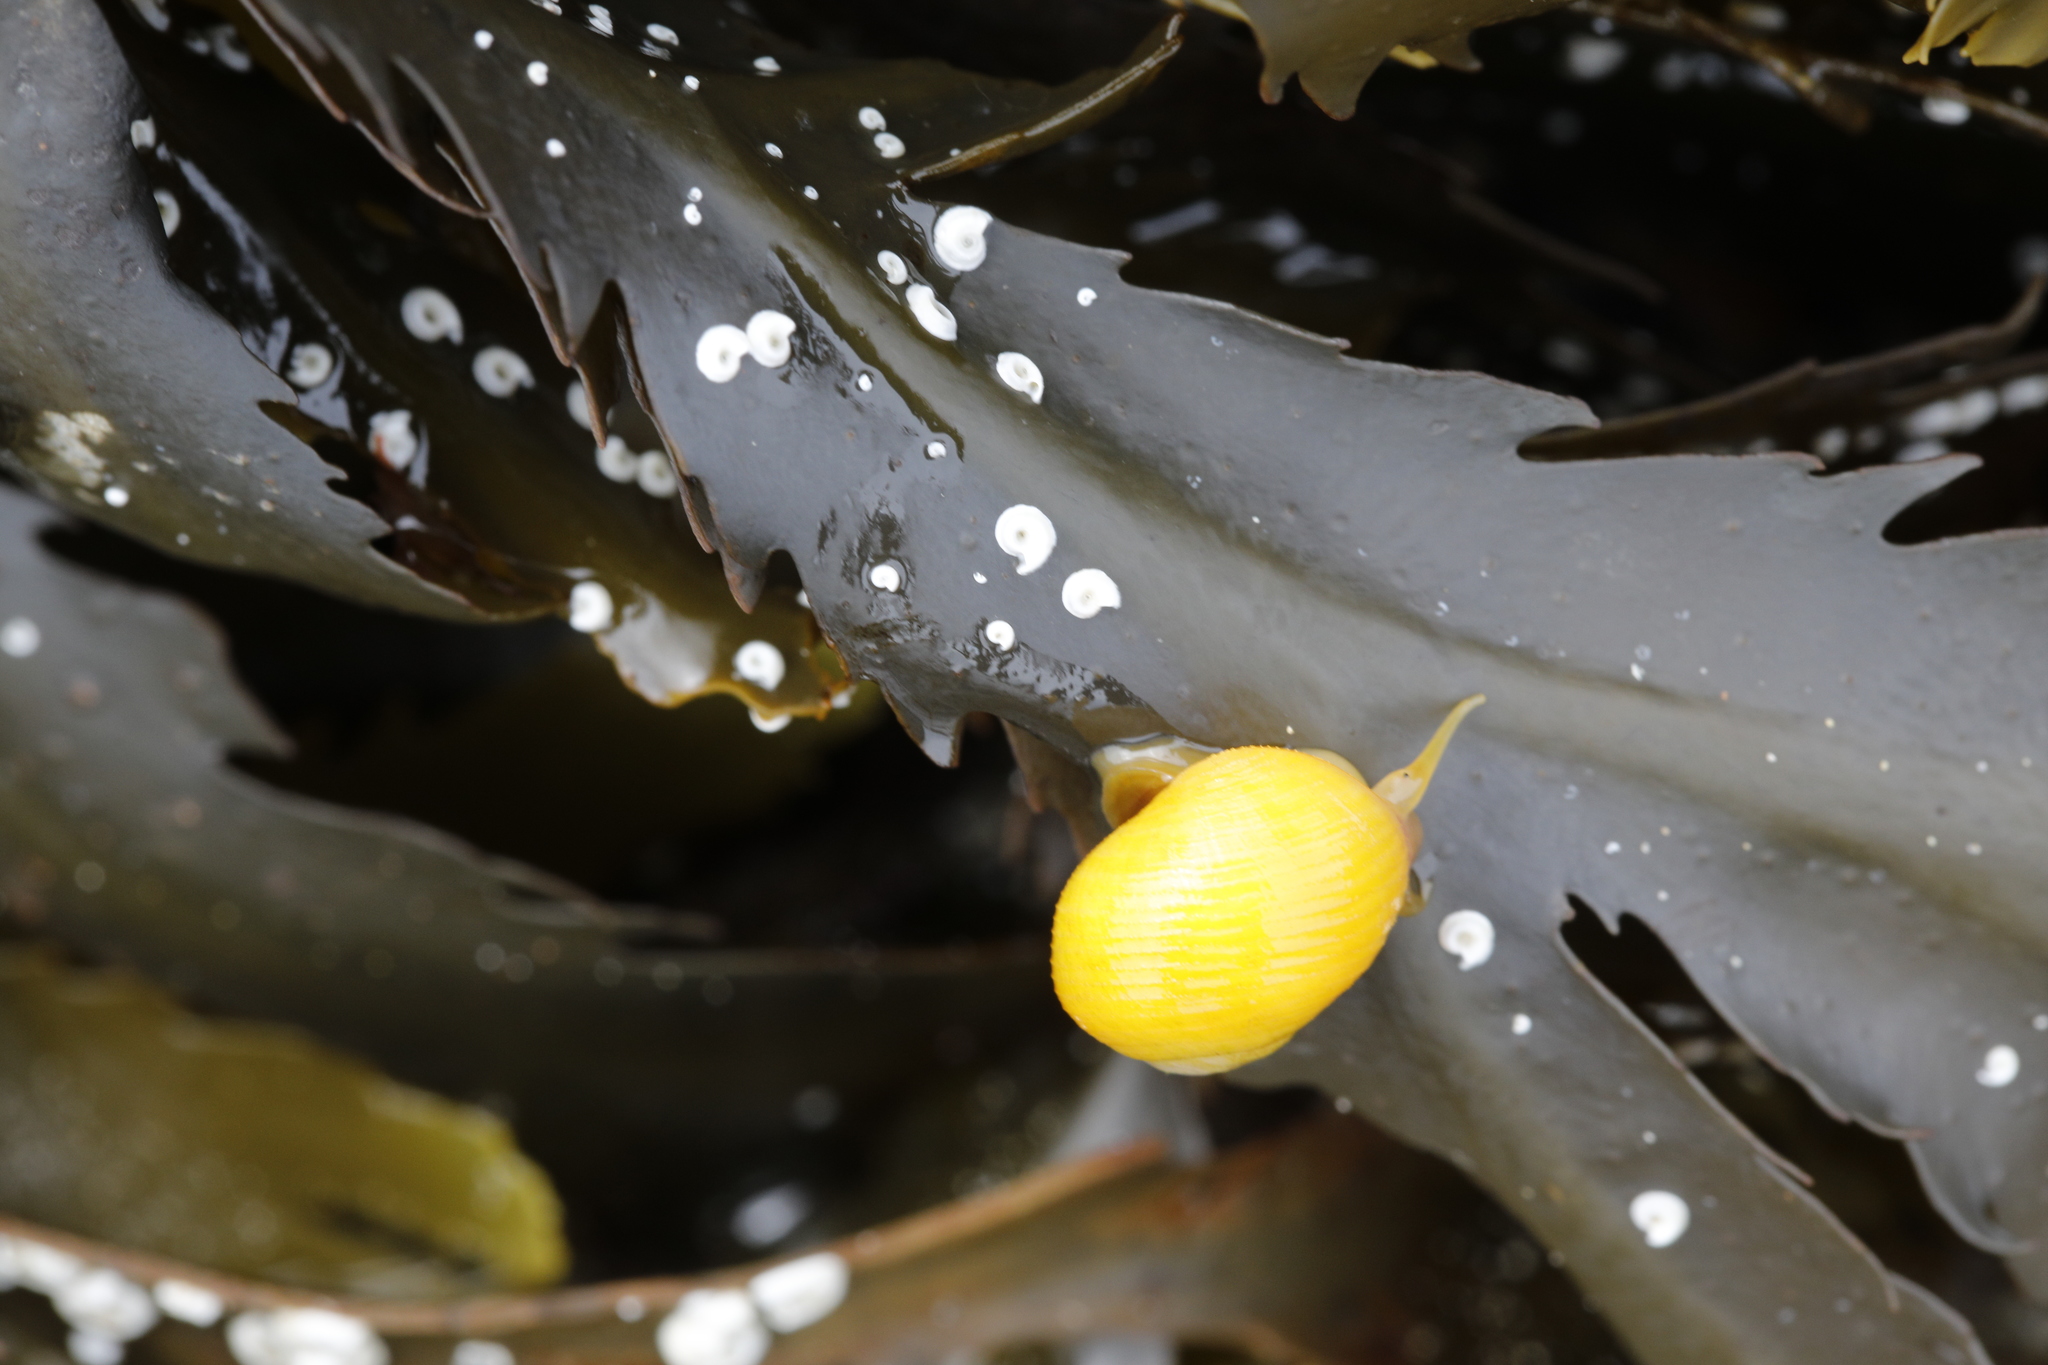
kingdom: Animalia
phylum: Mollusca
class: Gastropoda
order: Littorinimorpha
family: Littorinidae
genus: Littorina
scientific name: Littorina obtusata
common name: Flat periwinkle
